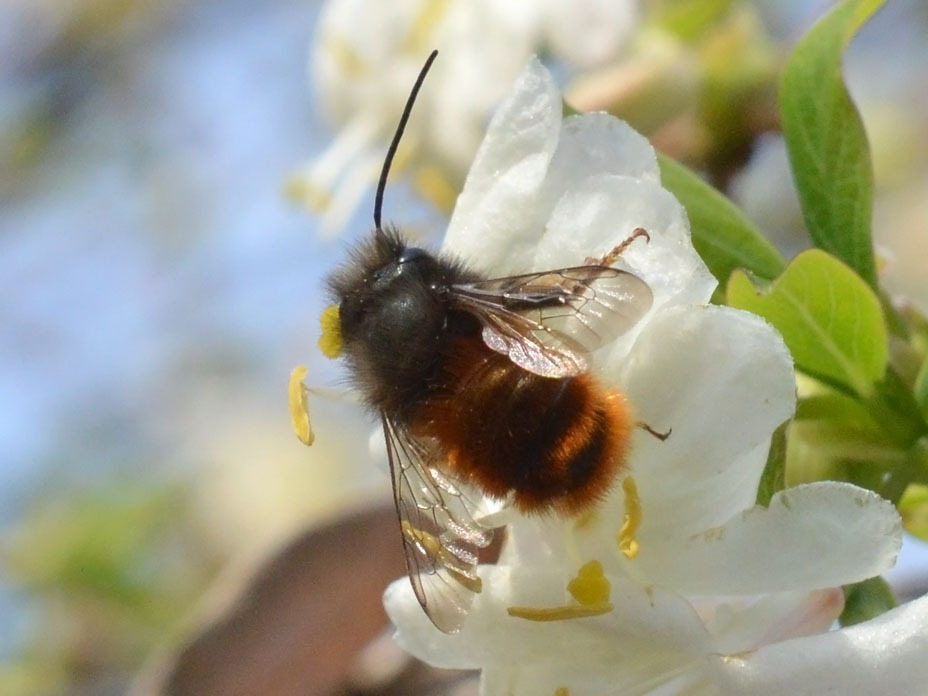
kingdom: Animalia
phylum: Arthropoda
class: Insecta
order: Hymenoptera
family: Megachilidae
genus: Osmia
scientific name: Osmia cornuta
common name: Mason bee
